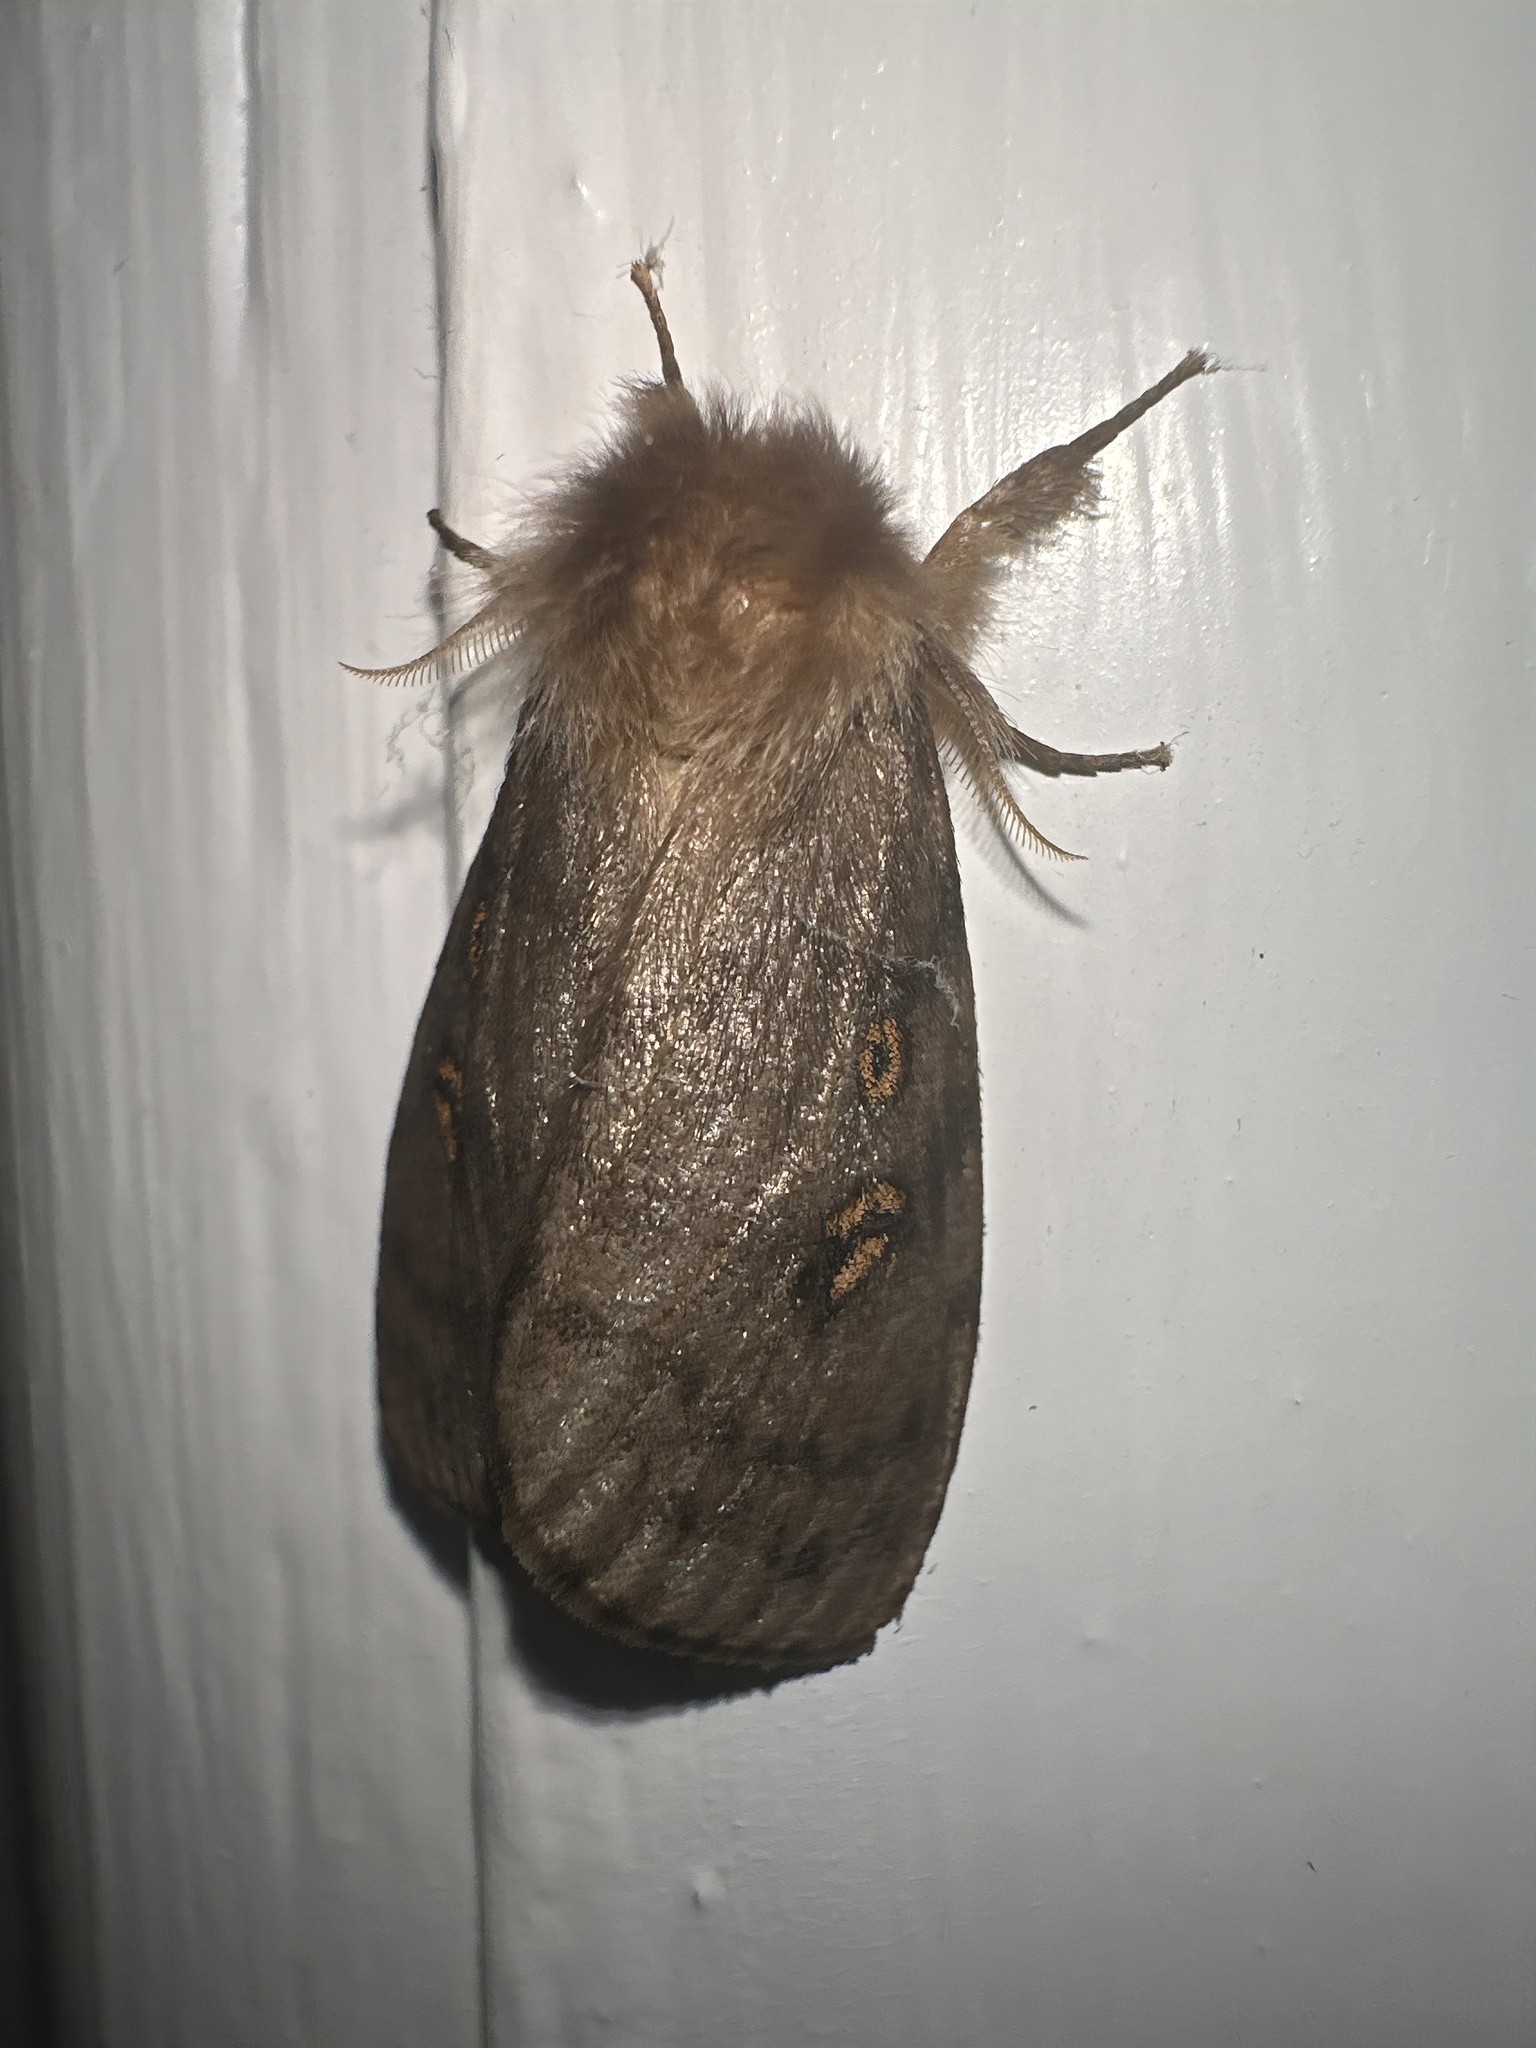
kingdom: Animalia
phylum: Arthropoda
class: Insecta
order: Lepidoptera
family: Erebidae
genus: Leptocneria
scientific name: Leptocneria reducta
